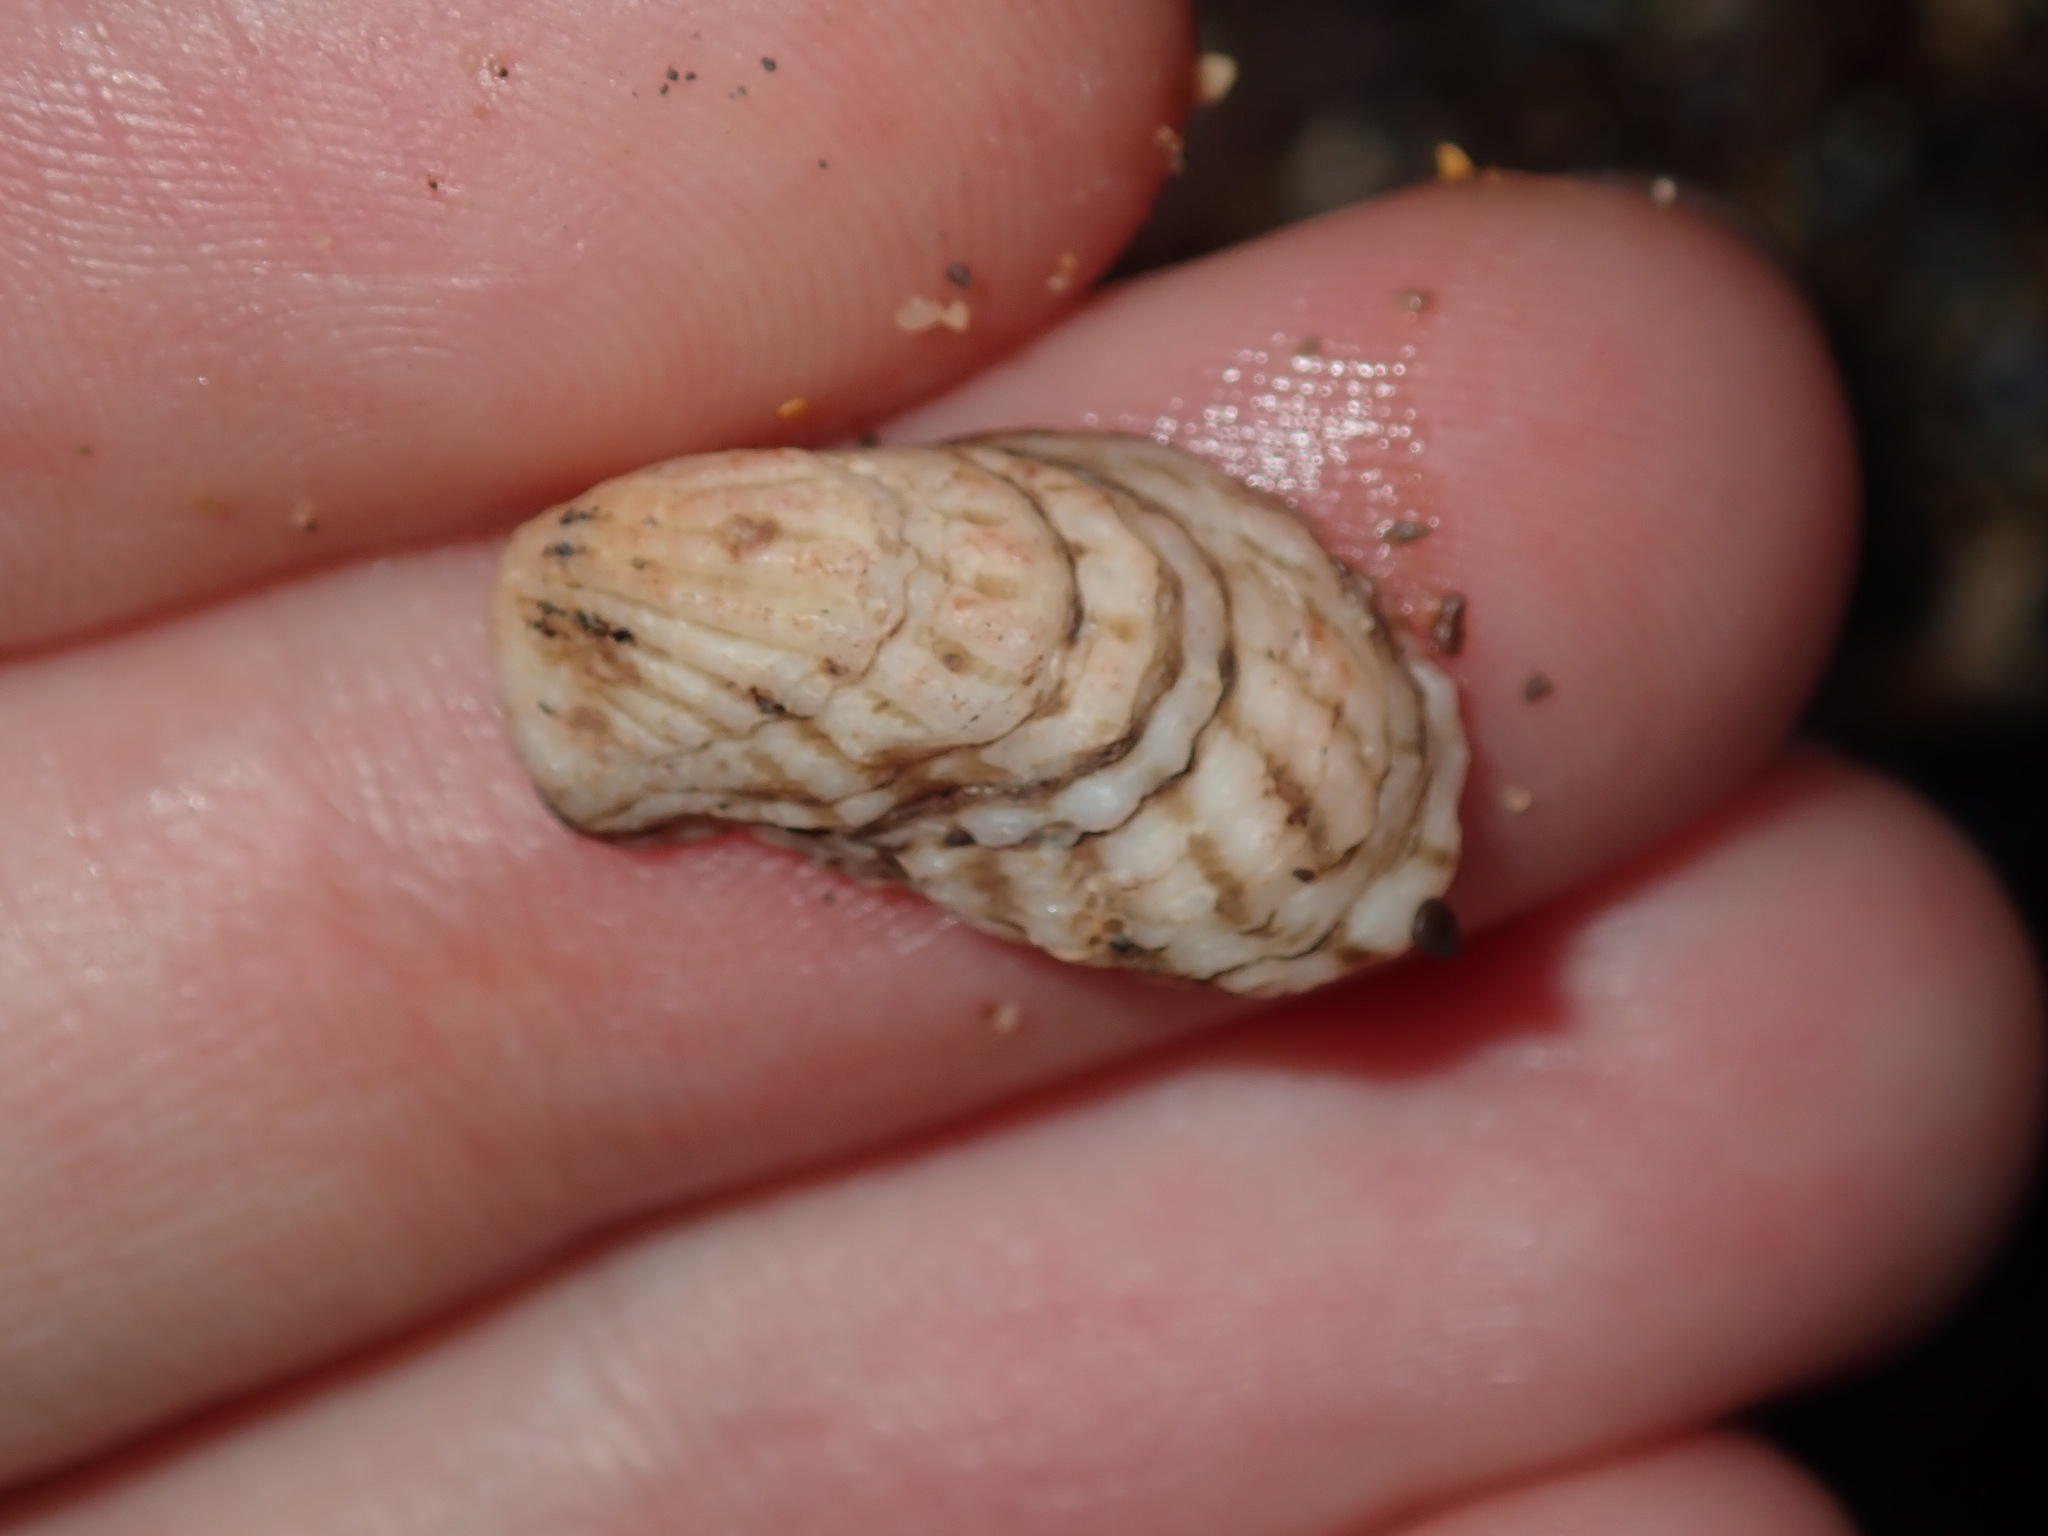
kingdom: Animalia
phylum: Mollusca
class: Bivalvia
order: Carditida
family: Carditidae
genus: Cardita
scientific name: Cardita aviculina
